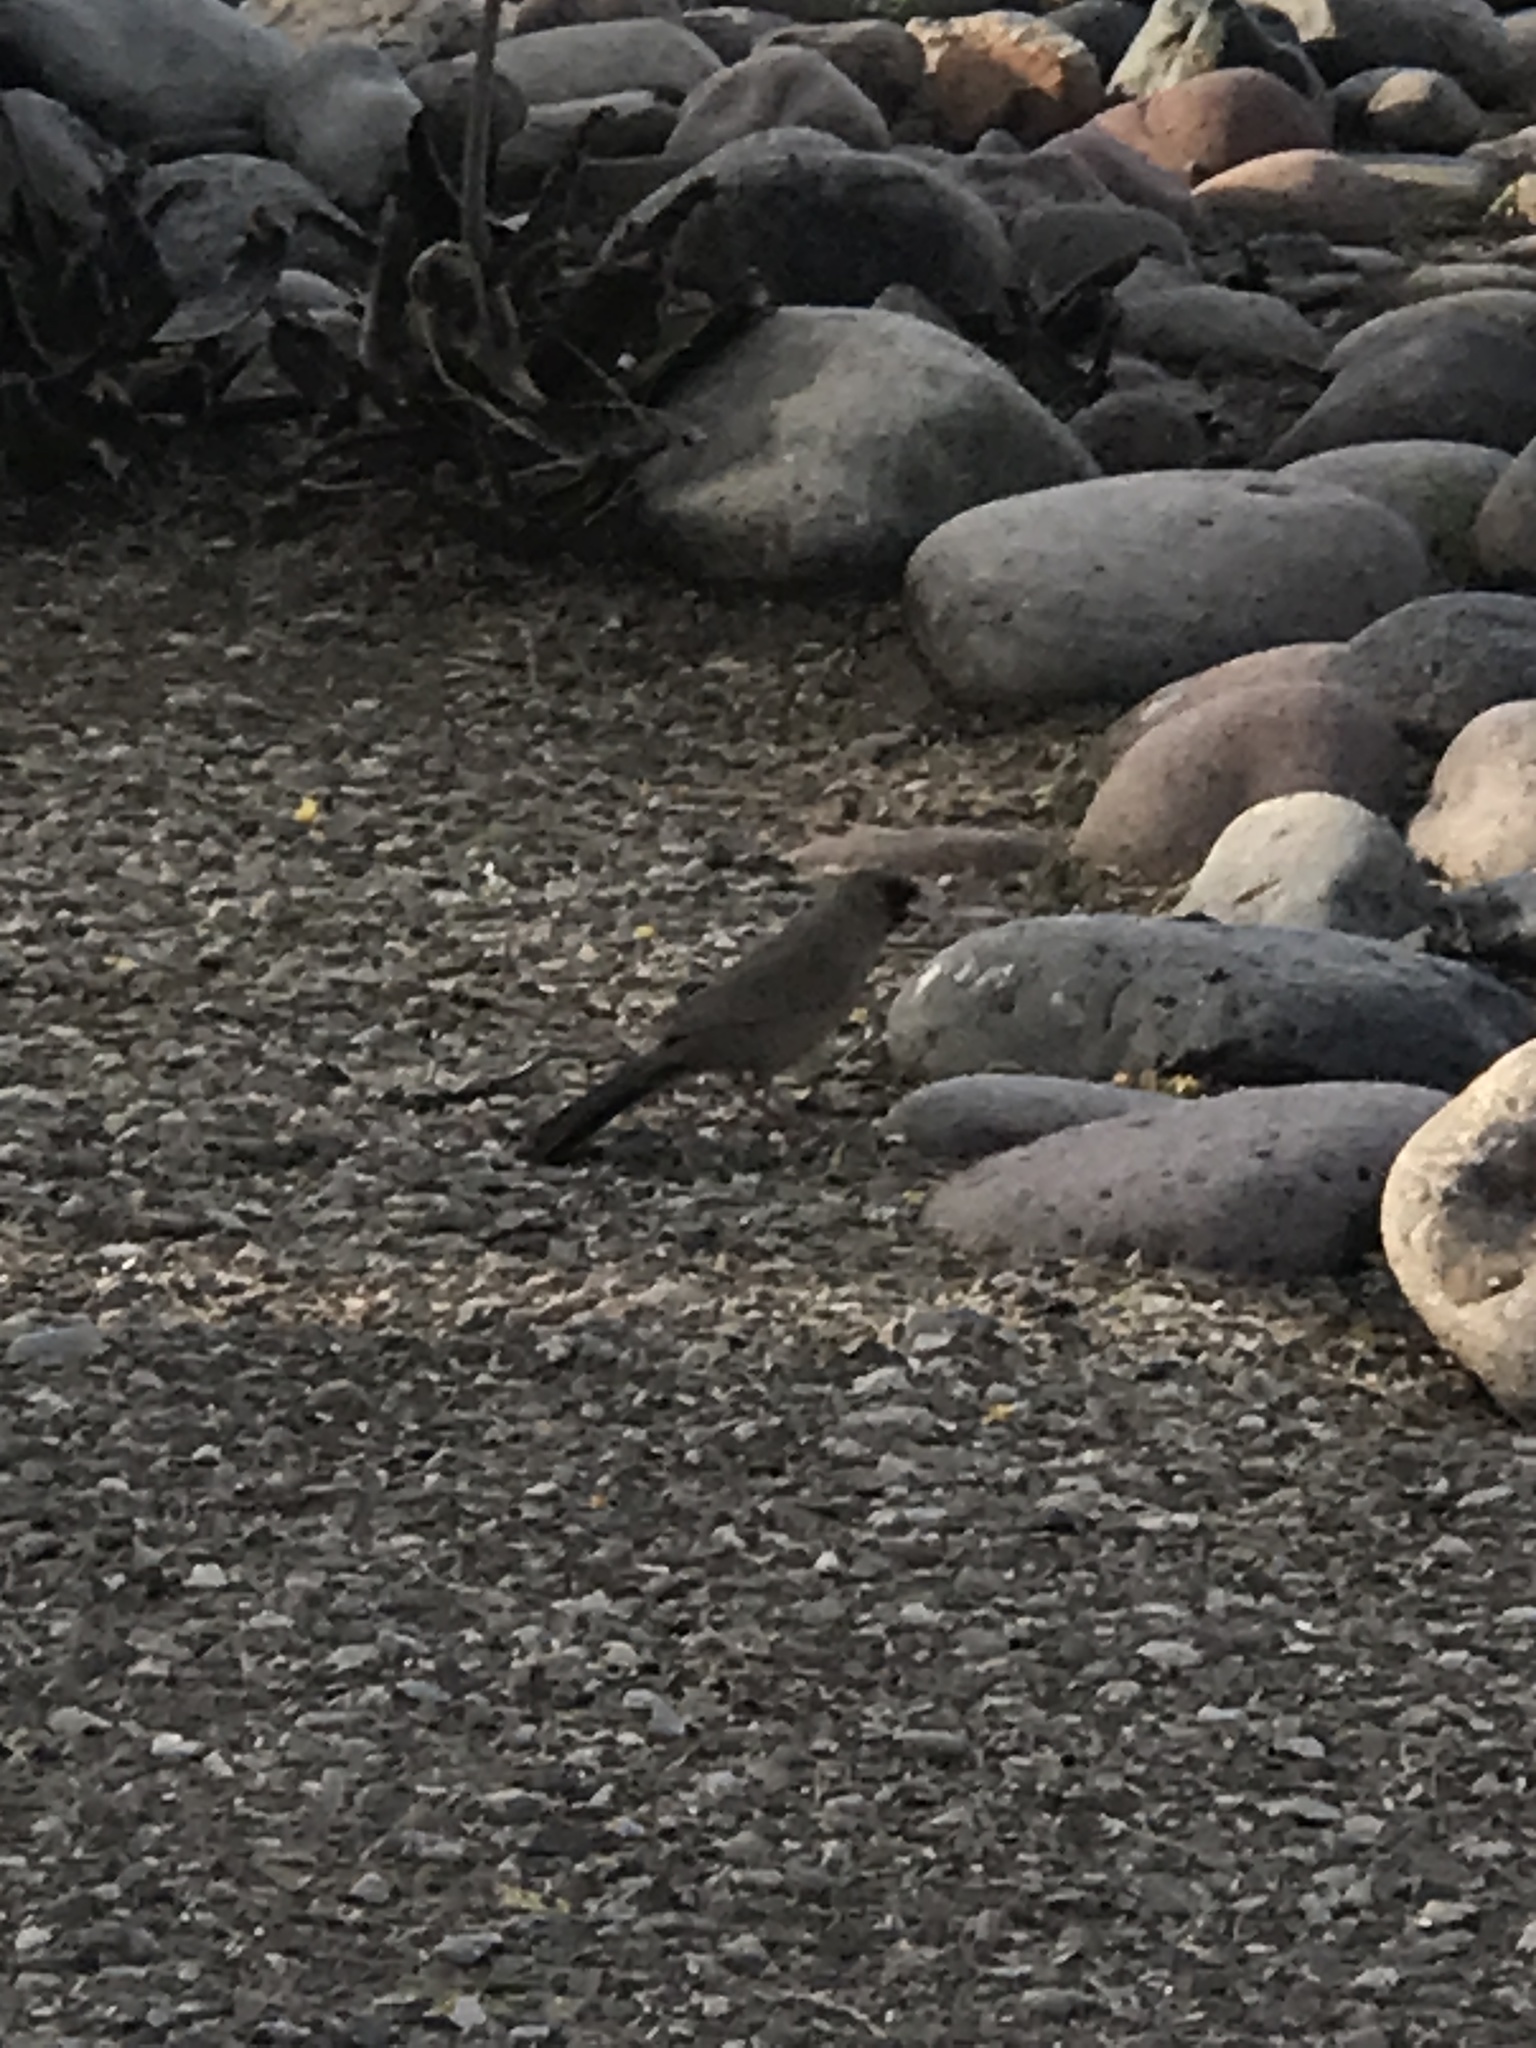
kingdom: Animalia
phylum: Chordata
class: Aves
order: Passeriformes
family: Passerellidae
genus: Melozone
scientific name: Melozone aberti
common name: Abert's towhee
